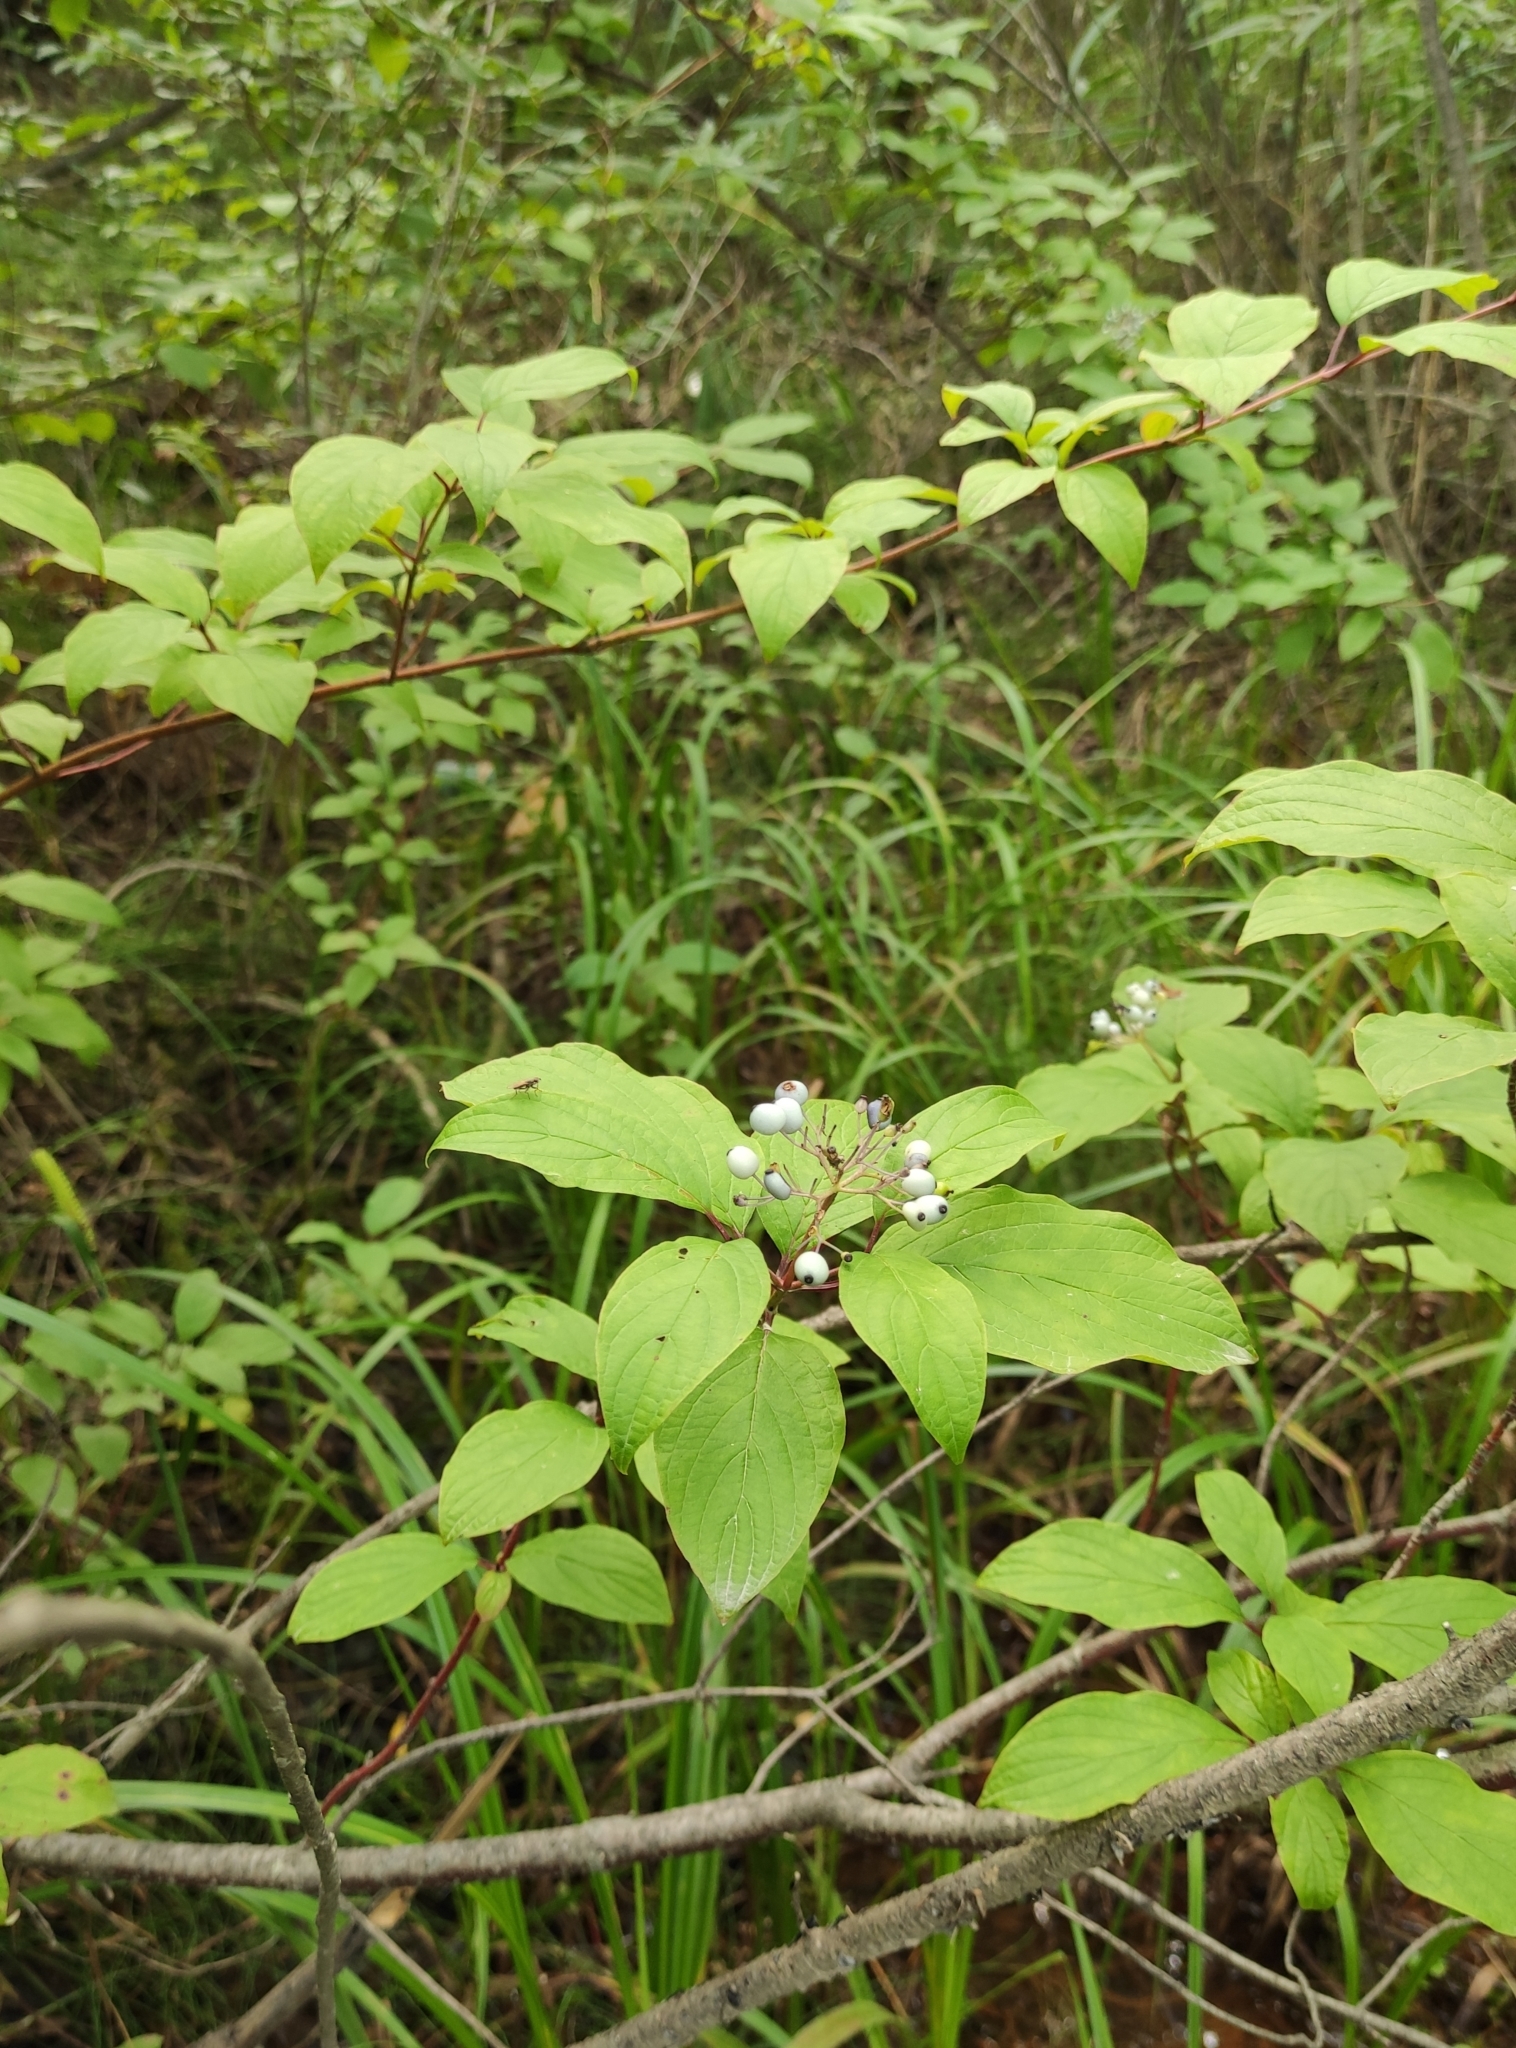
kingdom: Plantae
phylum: Tracheophyta
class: Magnoliopsida
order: Cornales
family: Cornaceae
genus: Cornus
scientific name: Cornus alba
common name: White dogwood
